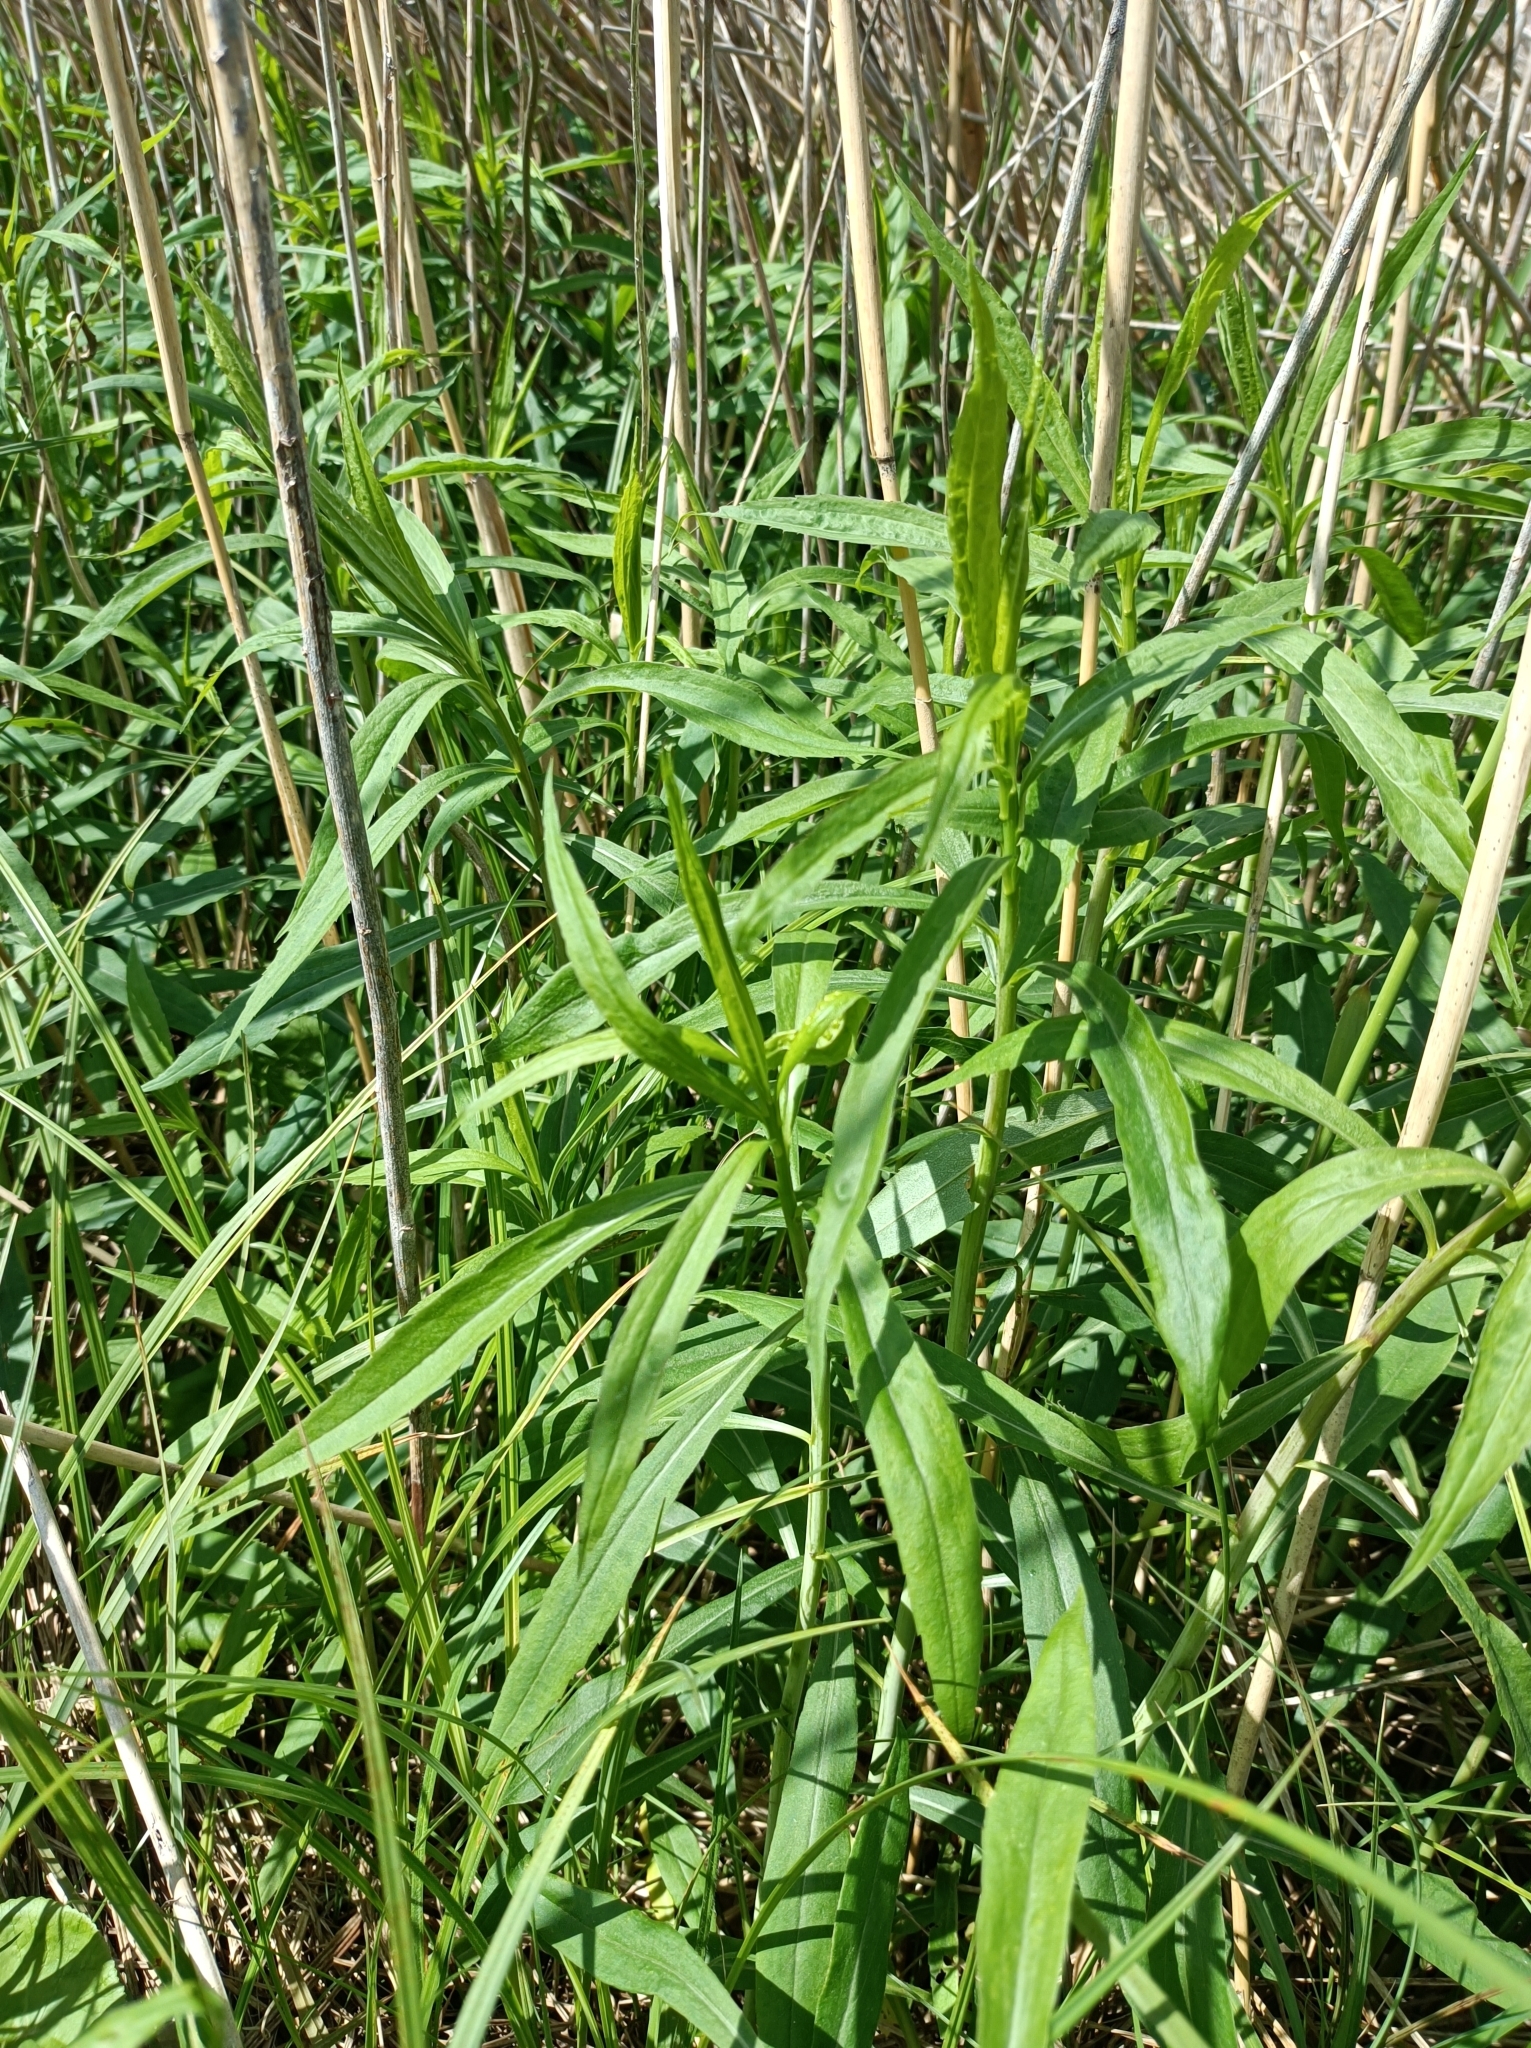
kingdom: Plantae
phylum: Tracheophyta
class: Magnoliopsida
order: Asterales
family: Asteraceae
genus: Senecio
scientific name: Senecio sarracenicus
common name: Broad-leaved ragwort
